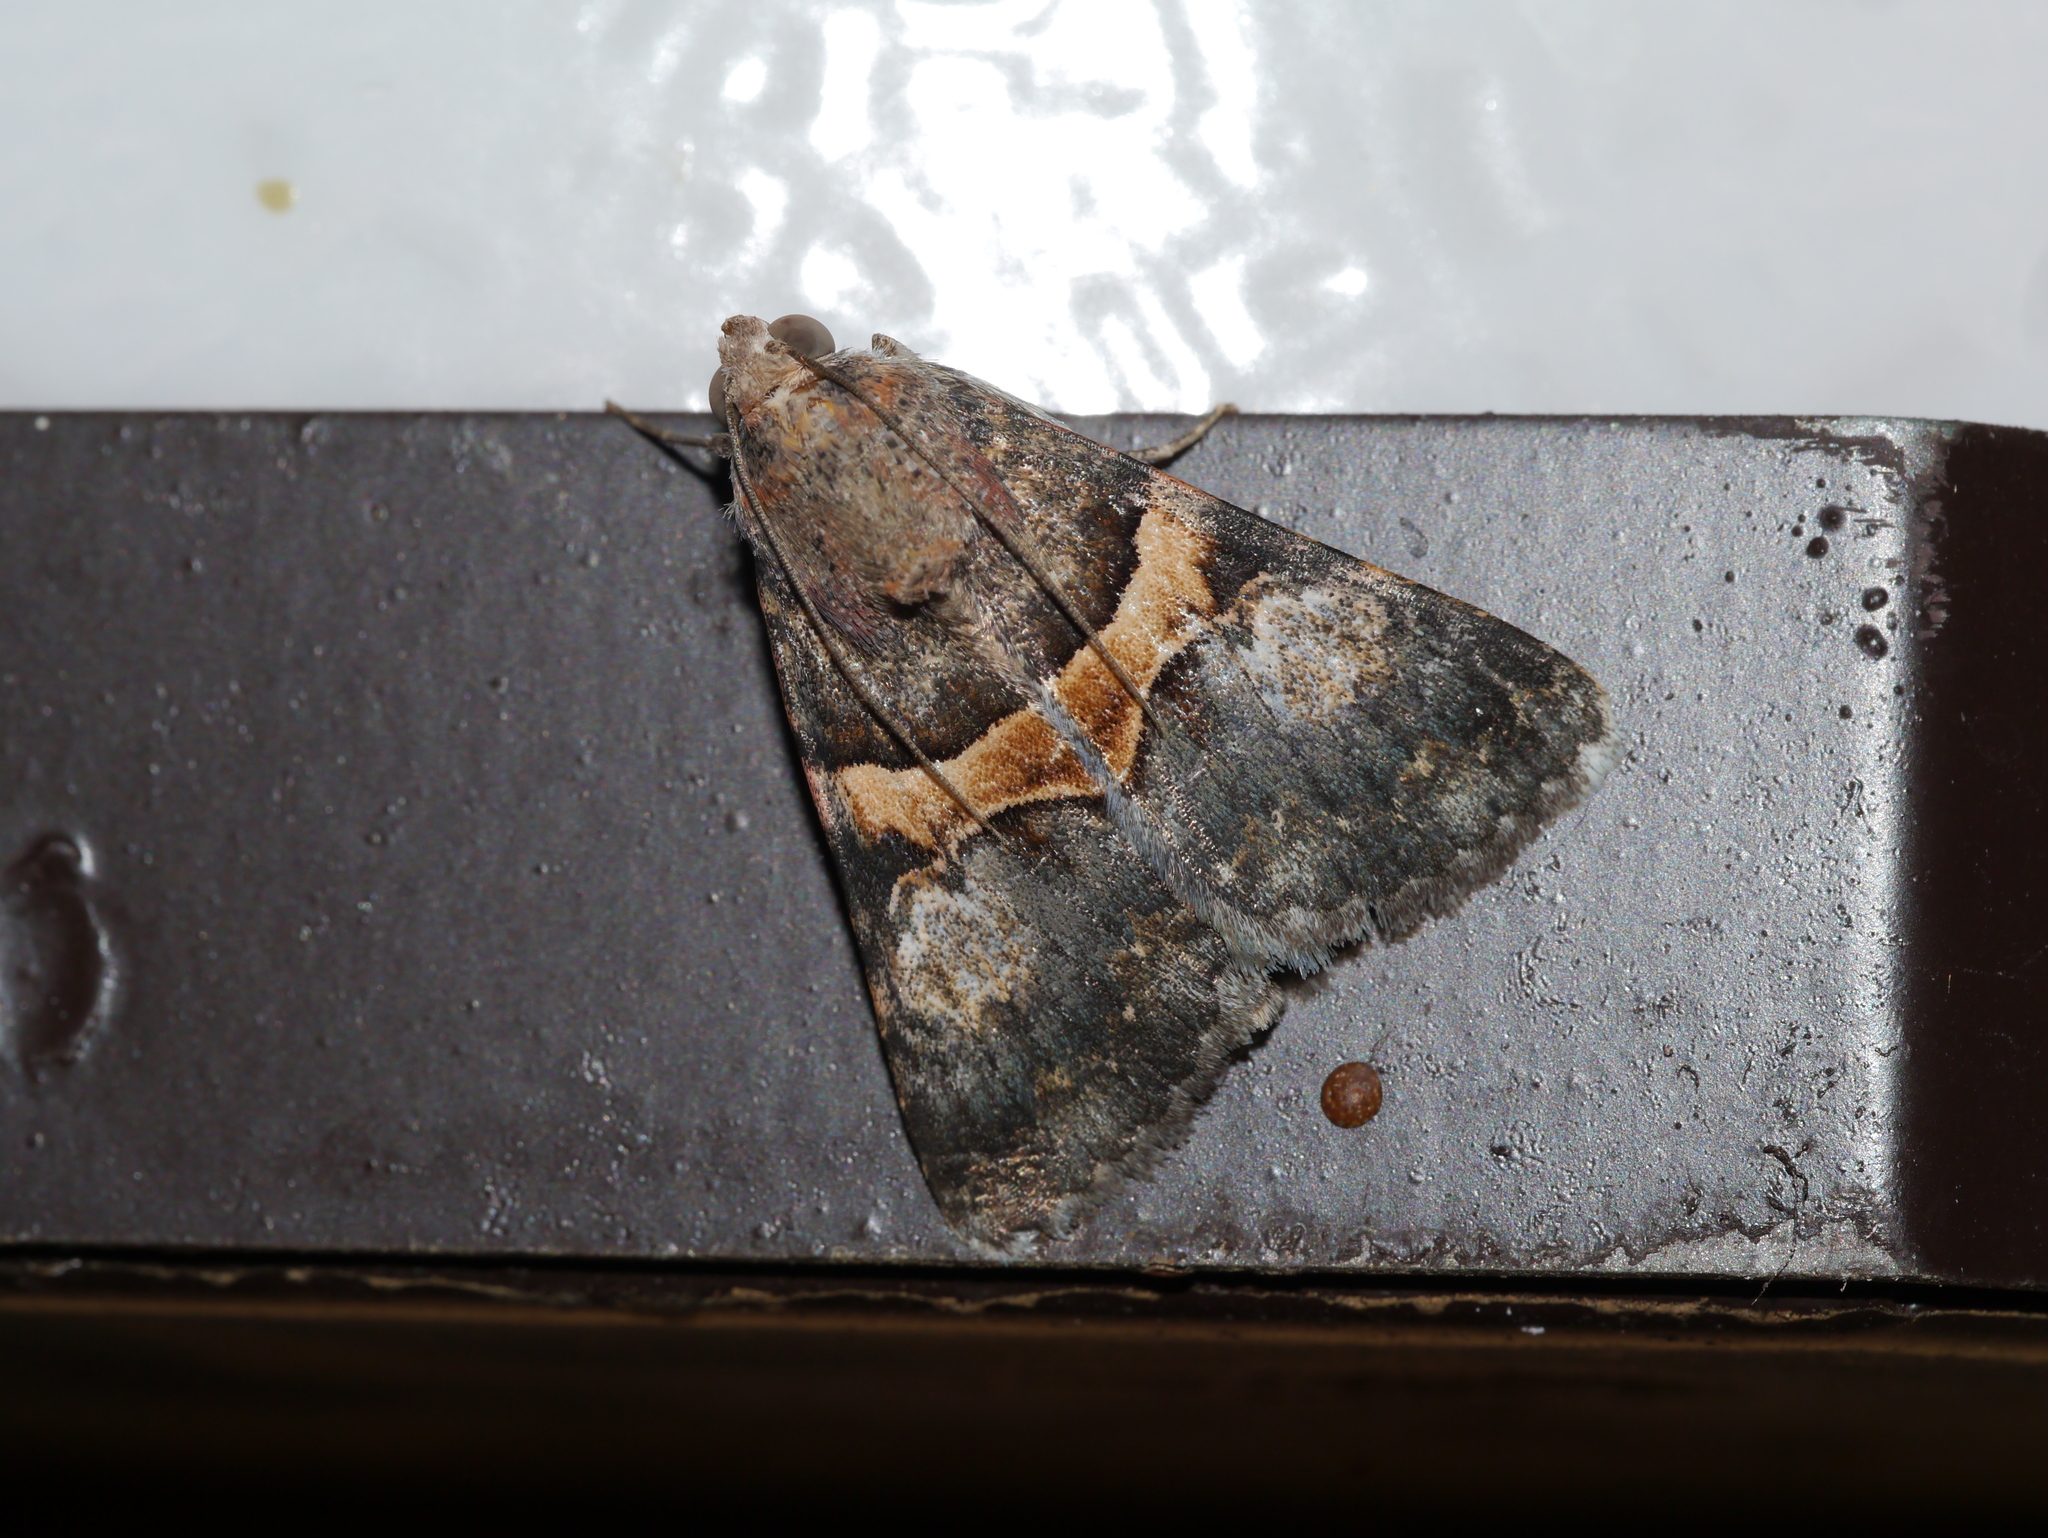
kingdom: Animalia
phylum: Arthropoda
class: Insecta
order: Lepidoptera
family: Erebidae
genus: Melipotis
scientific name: Melipotis jucunda
